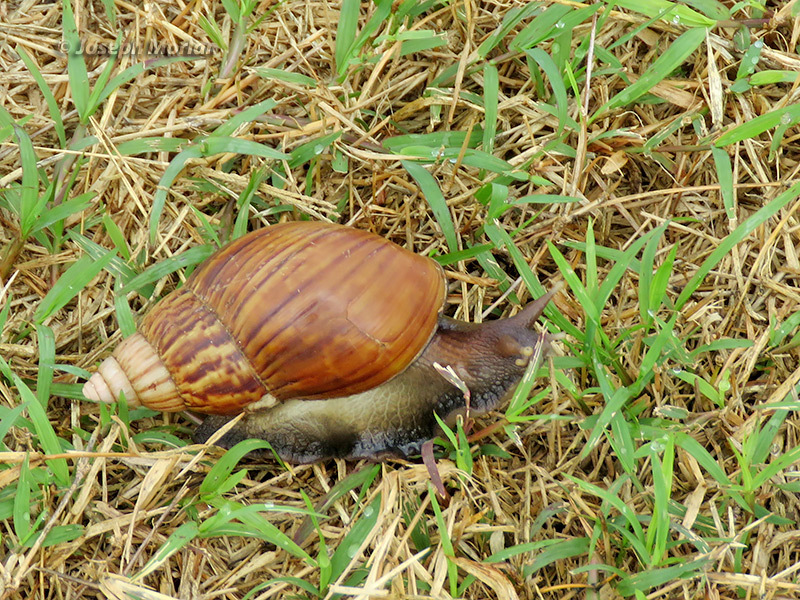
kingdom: Animalia
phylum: Mollusca
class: Gastropoda
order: Stylommatophora
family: Achatinidae
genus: Lissachatina
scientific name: Lissachatina fulica
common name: Giant african snail
